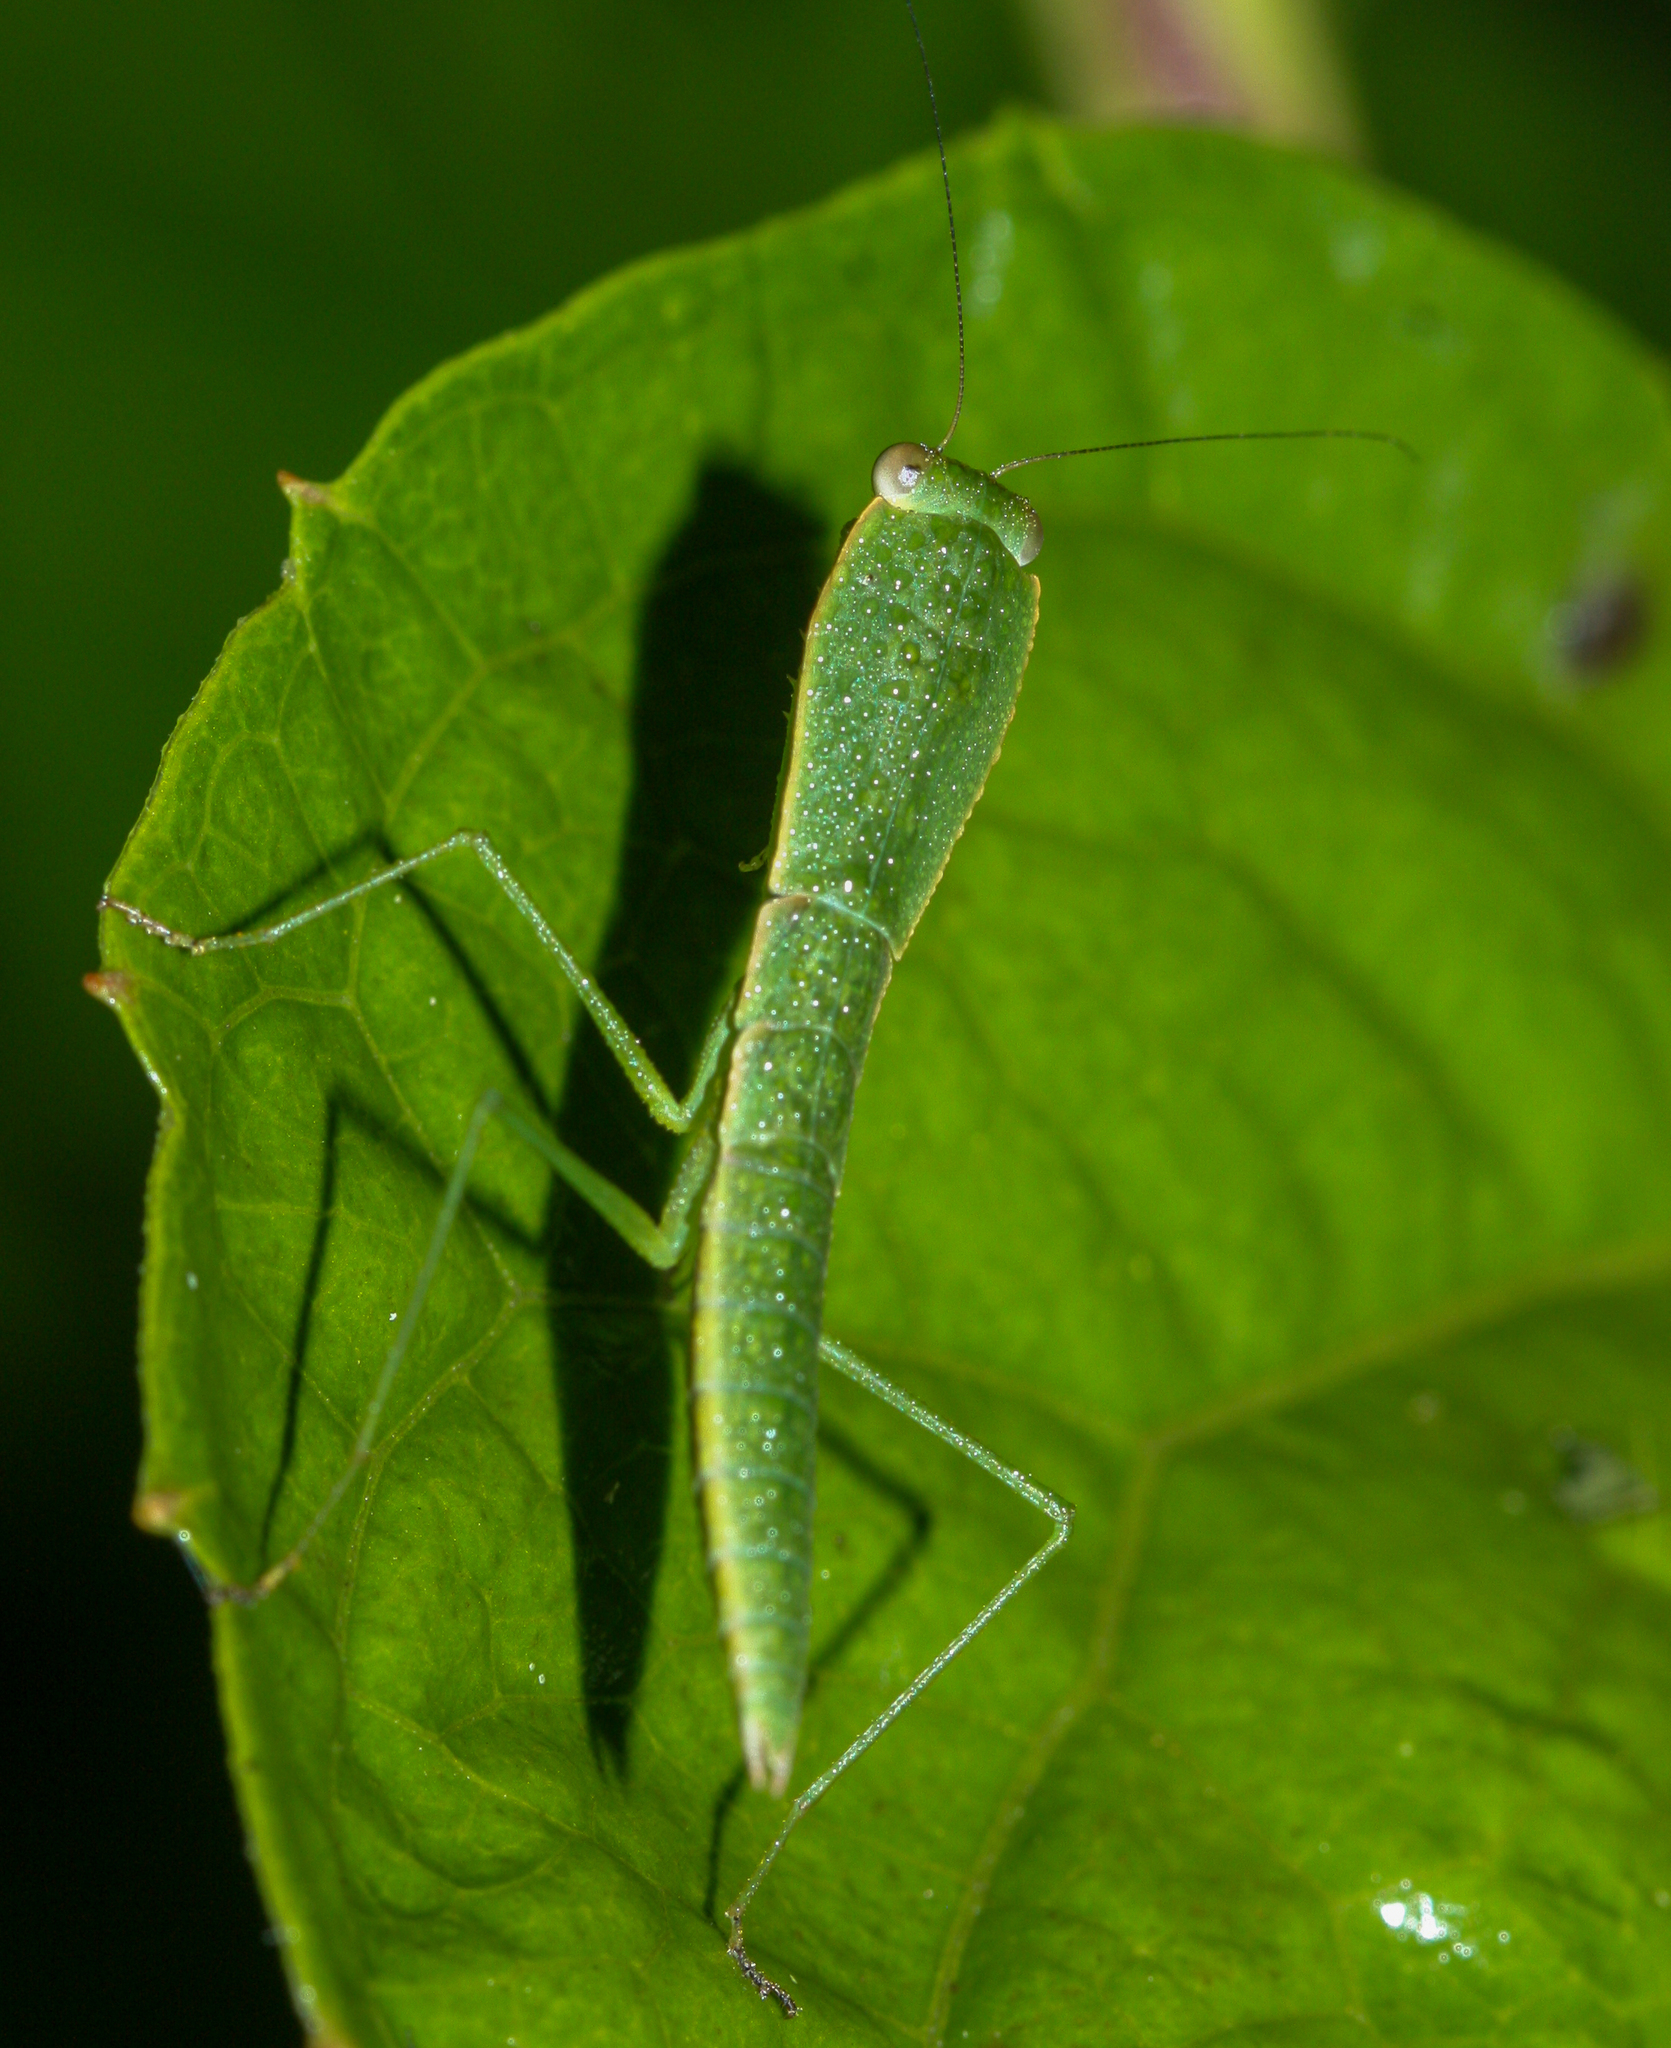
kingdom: Animalia
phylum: Arthropoda
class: Insecta
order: Mantodea
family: Mantidae
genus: Choeradodis
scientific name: Choeradodis rhombicollis
